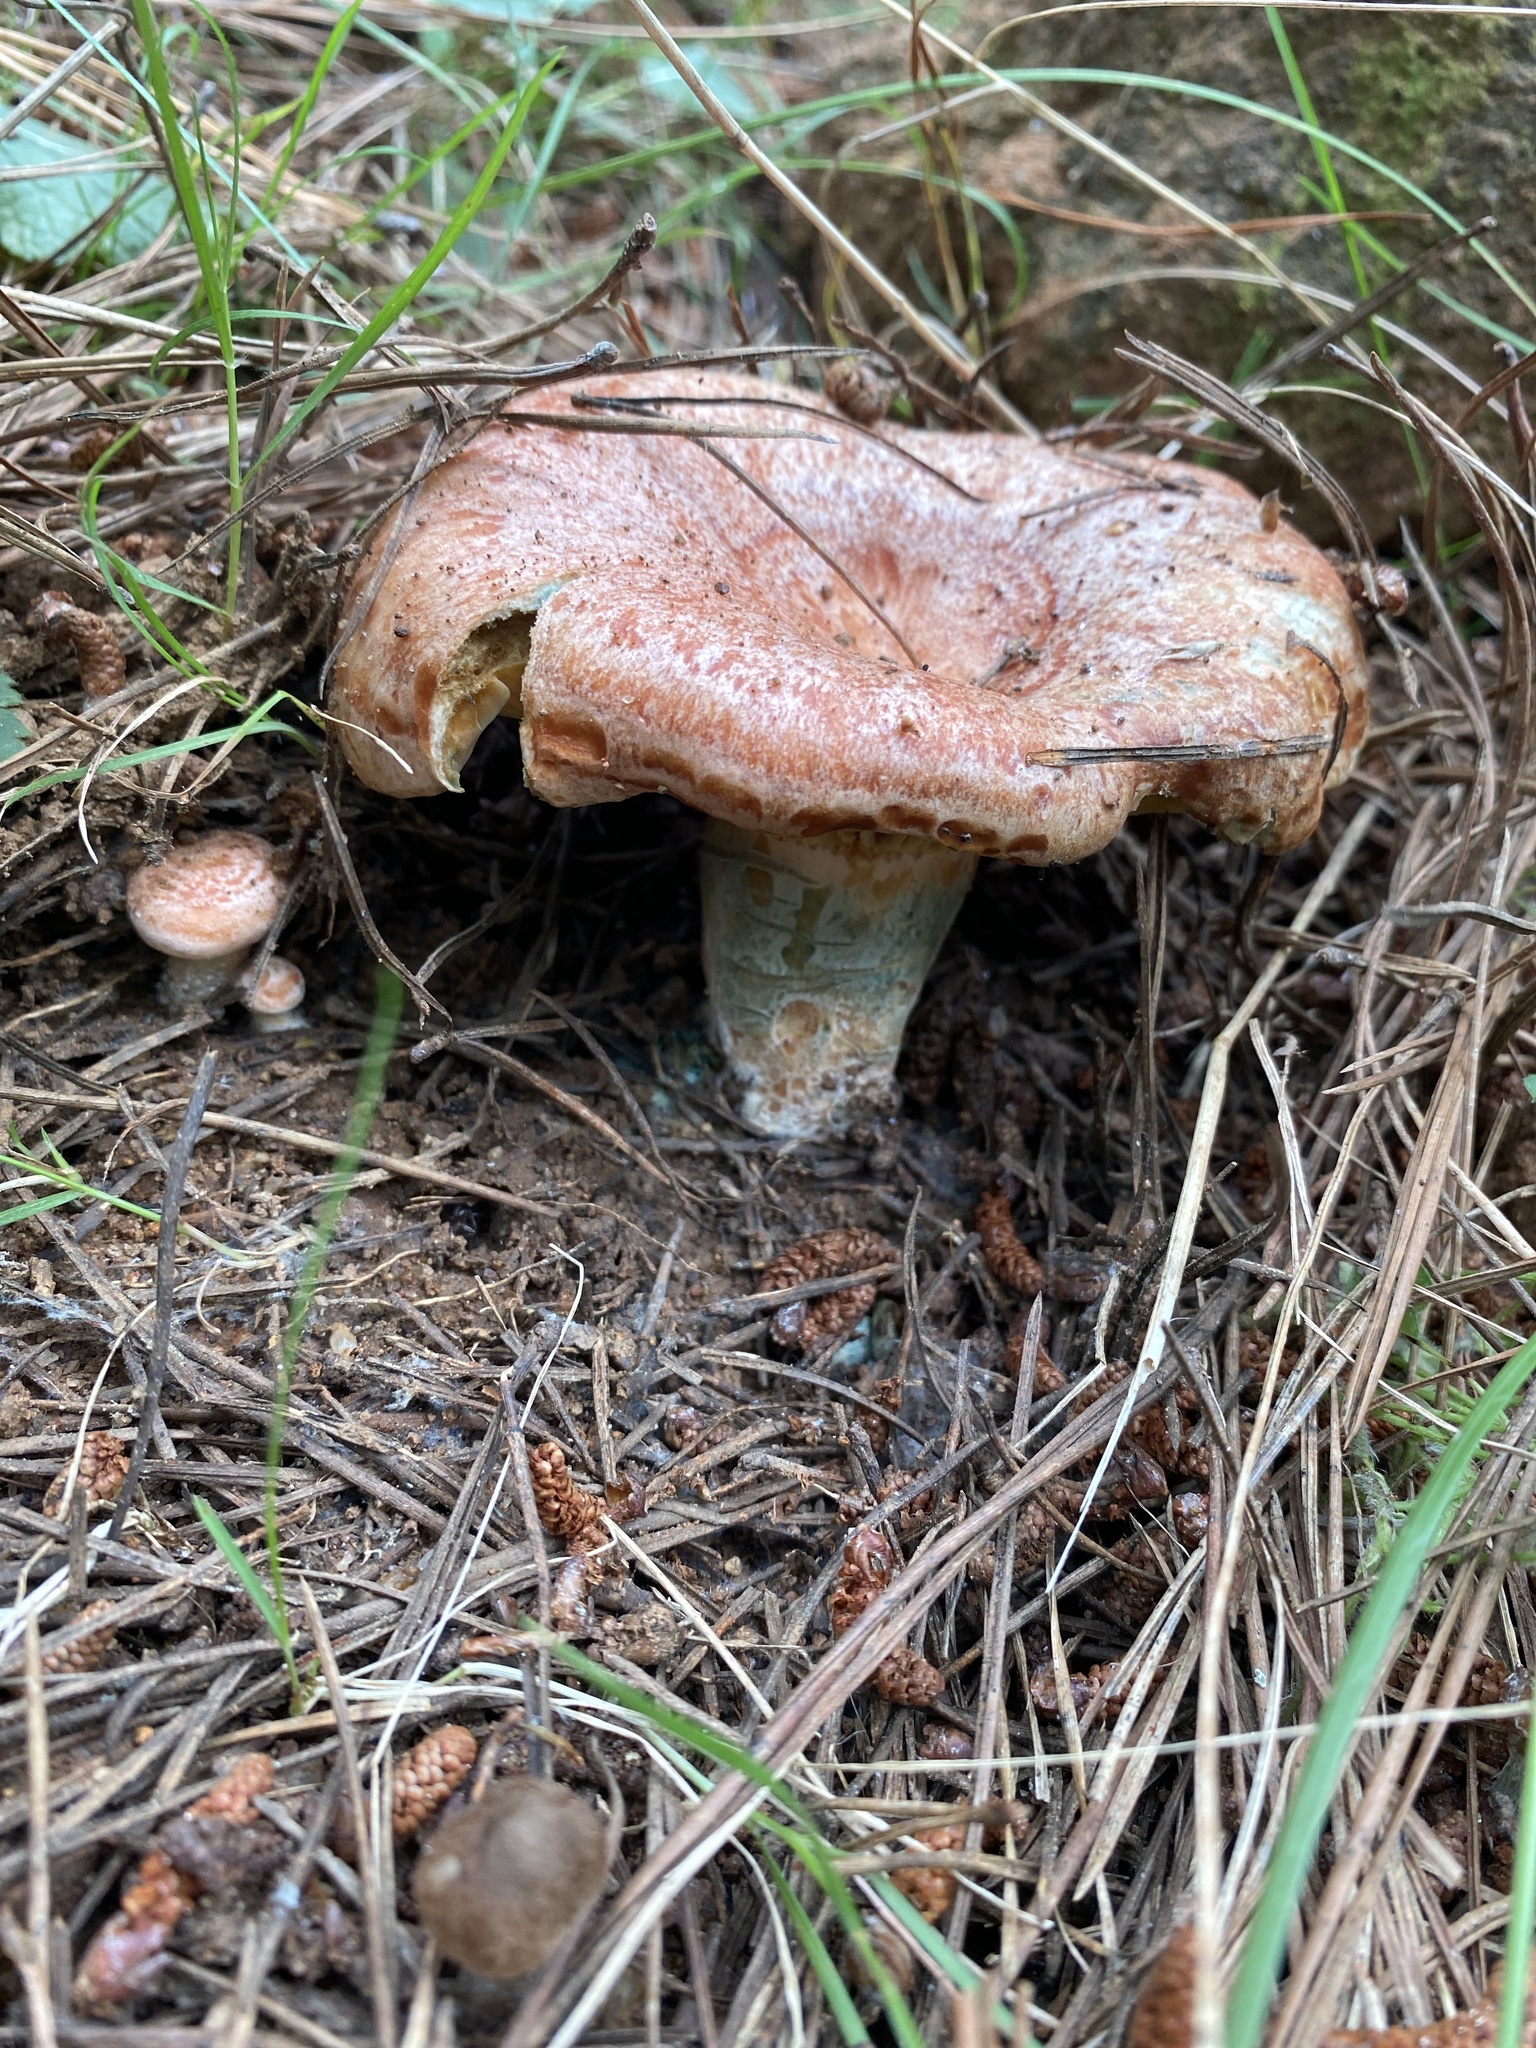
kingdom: Fungi
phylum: Basidiomycota
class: Agaricomycetes
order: Russulales
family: Russulaceae
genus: Lactarius
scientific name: Lactarius deliciosus
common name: Saffron milk-cap
